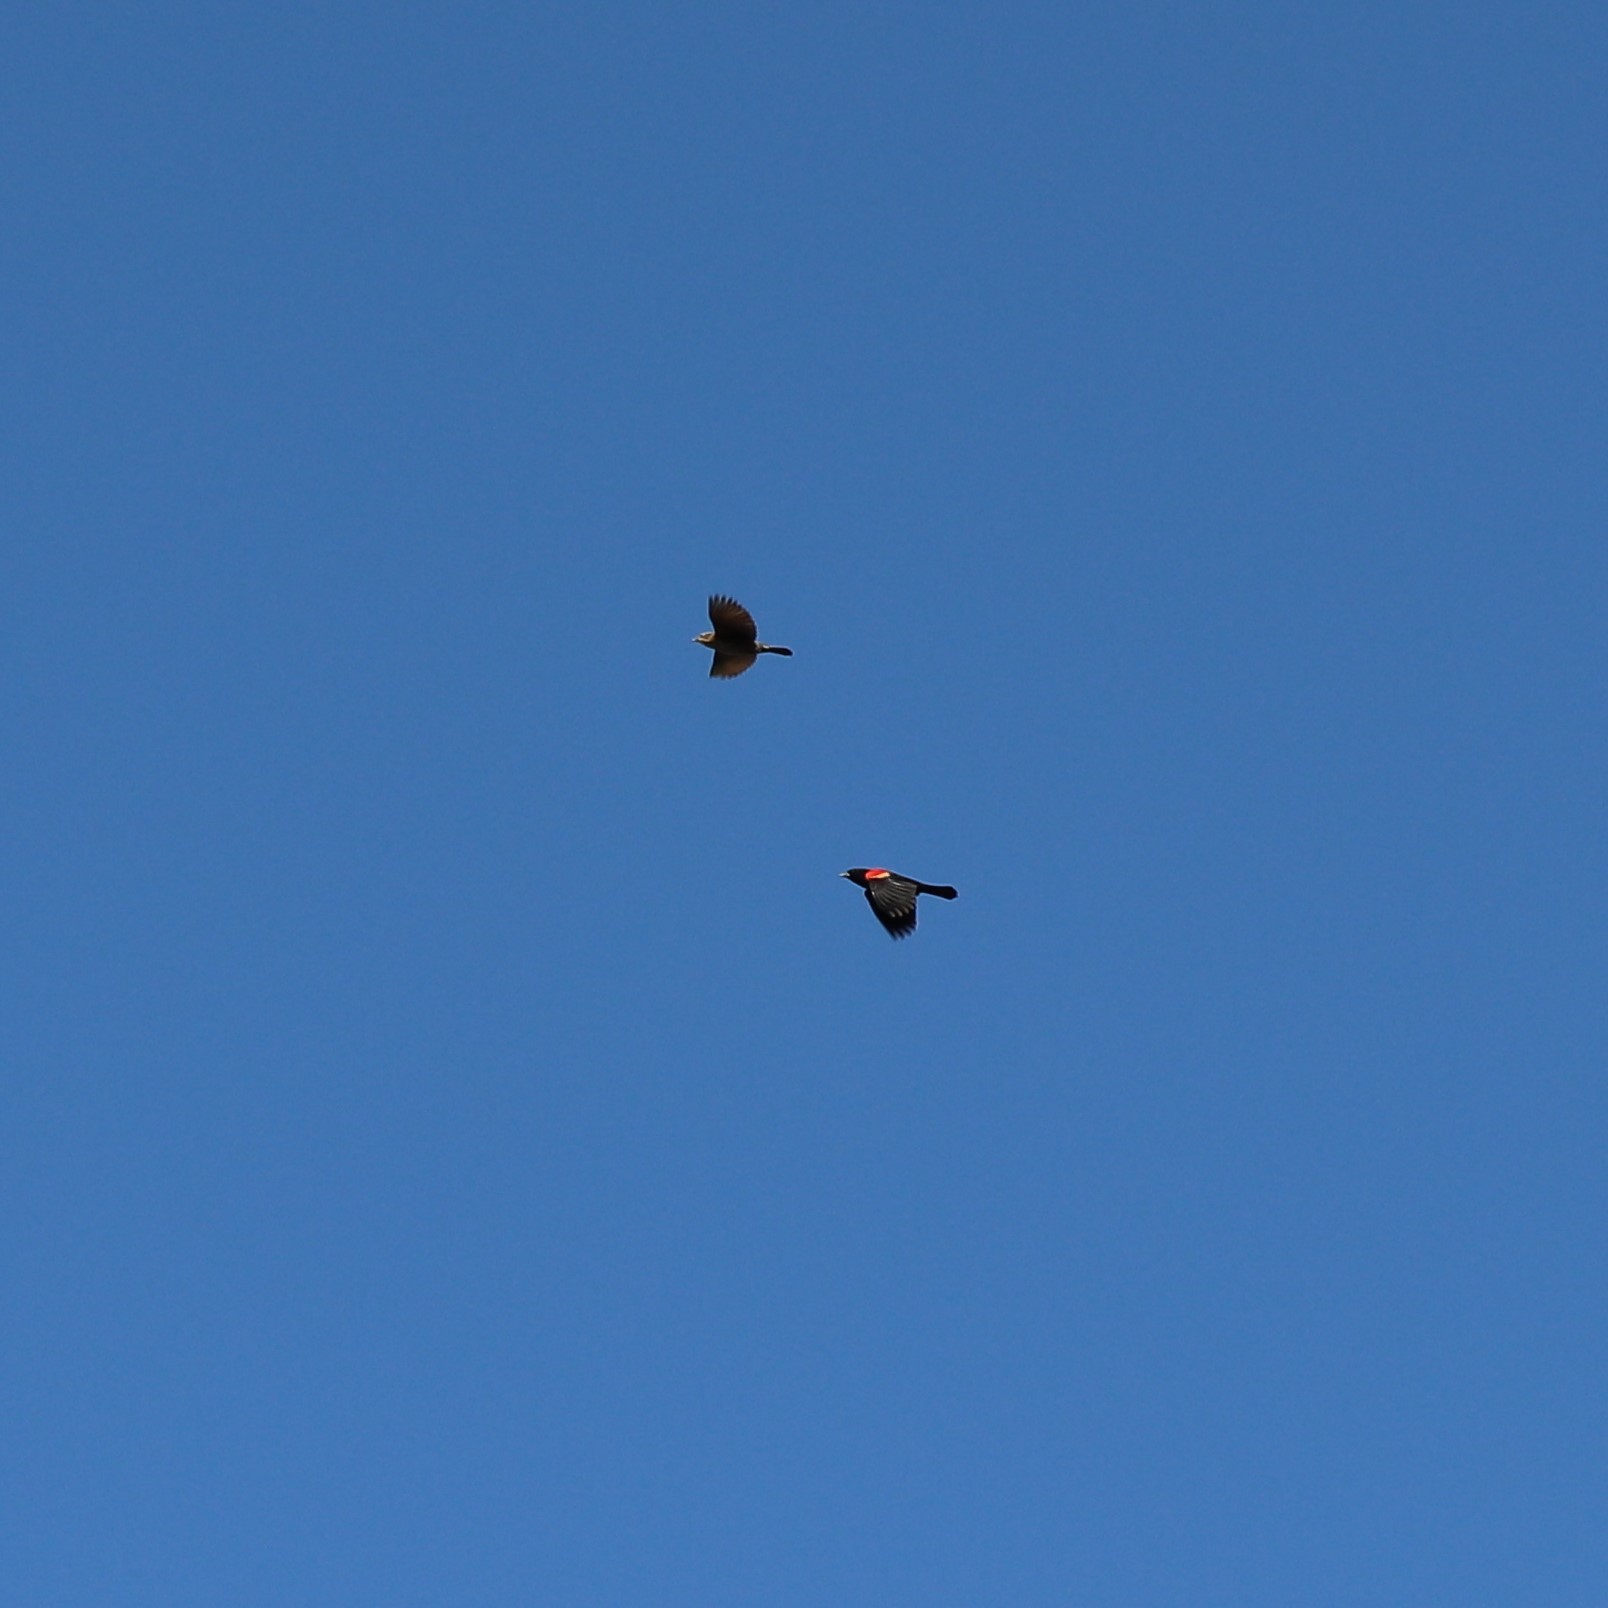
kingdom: Animalia
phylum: Chordata
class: Aves
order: Passeriformes
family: Icteridae
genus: Agelaius
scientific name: Agelaius phoeniceus
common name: Red-winged blackbird
